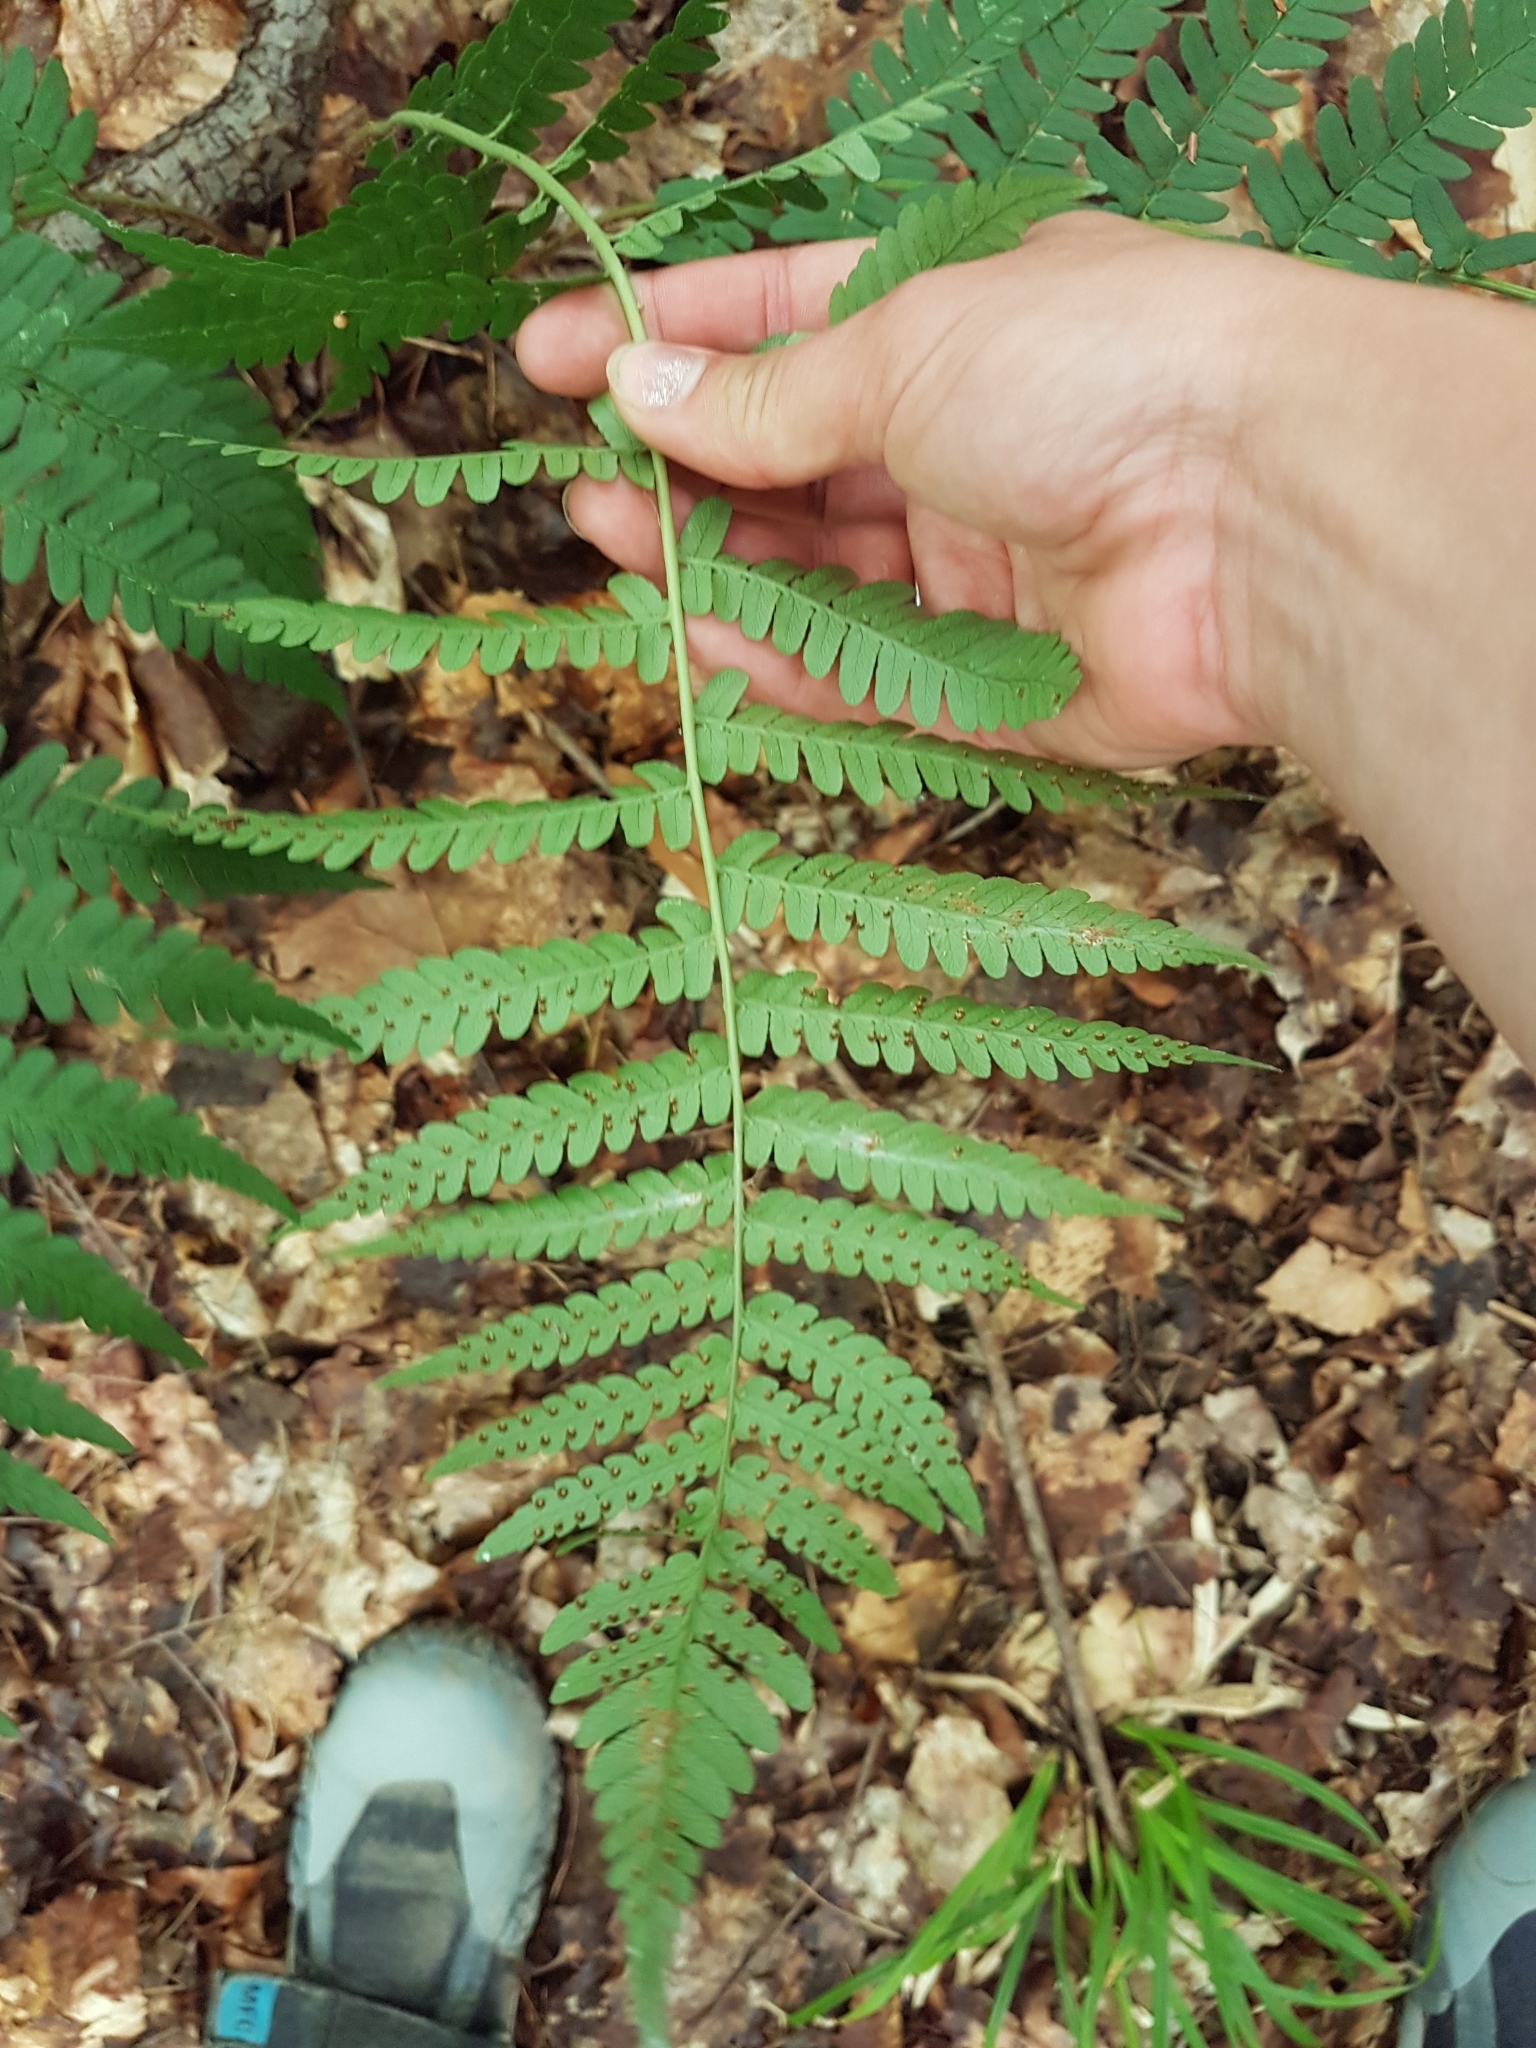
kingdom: Plantae
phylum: Tracheophyta
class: Polypodiopsida
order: Polypodiales
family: Dryopteridaceae
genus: Dryopteris
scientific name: Dryopteris marginalis
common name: Marginal wood fern
